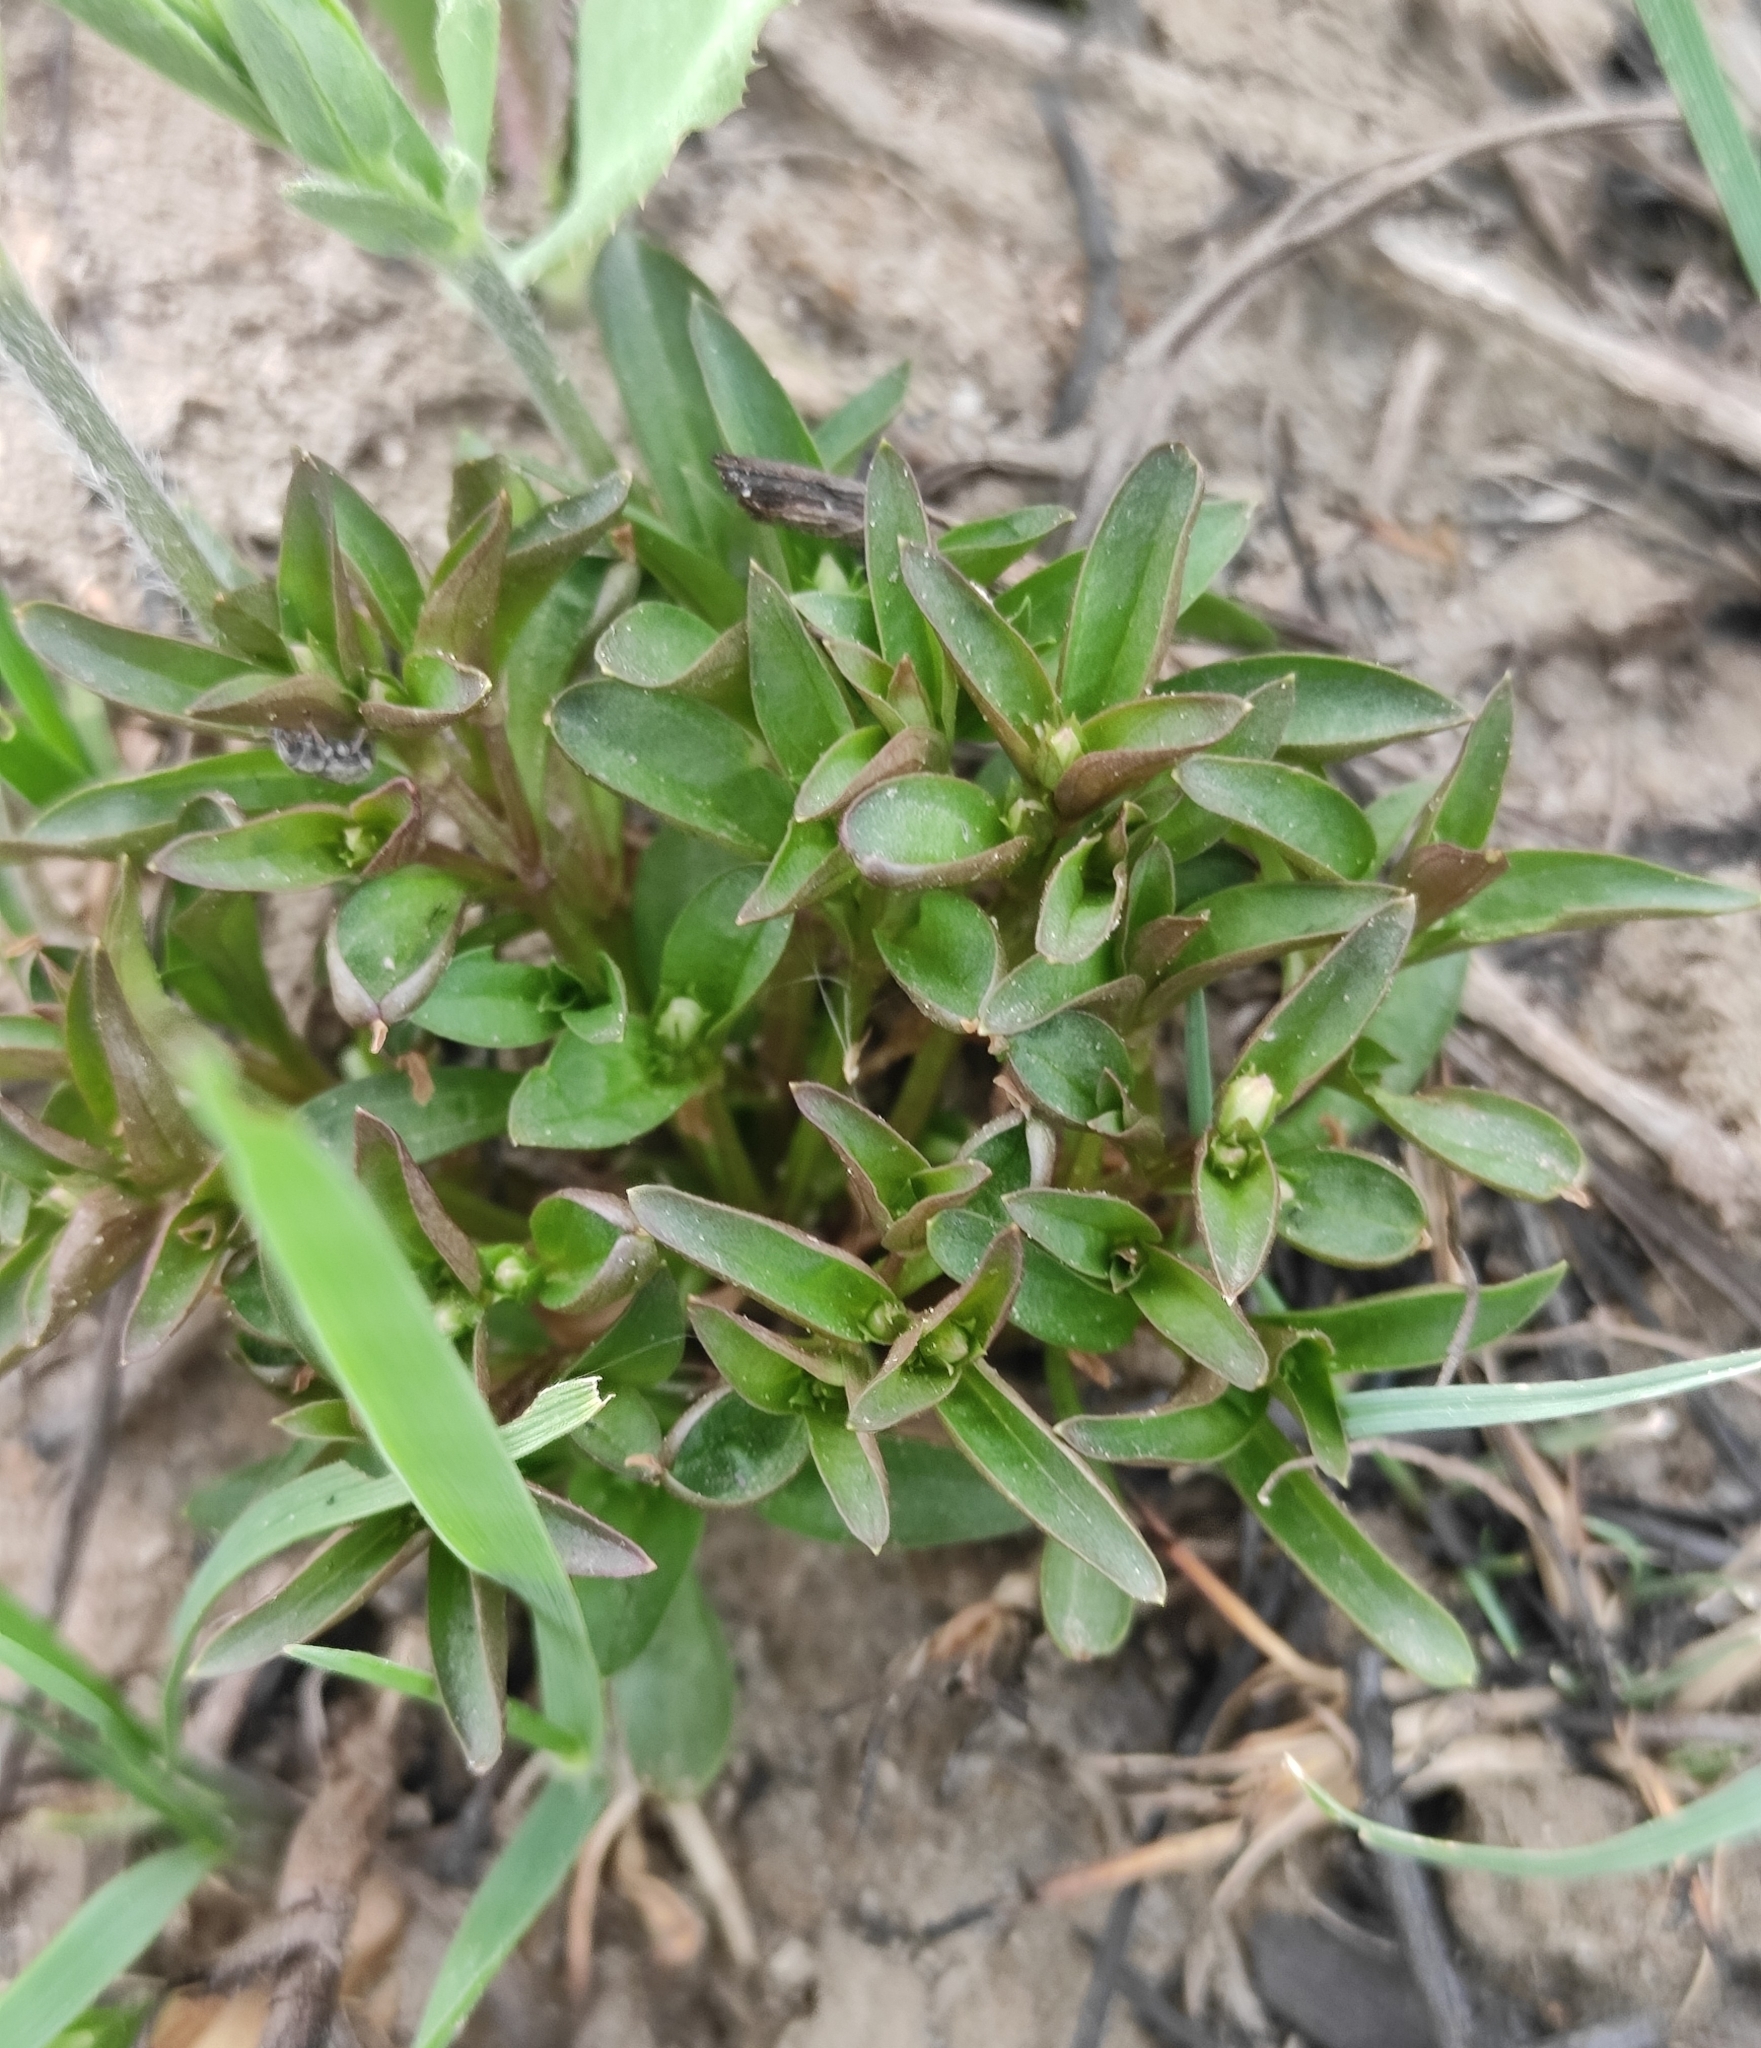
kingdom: Plantae
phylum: Tracheophyta
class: Magnoliopsida
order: Gentianales
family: Gentianaceae
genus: Swertia
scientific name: Swertia dichotoma
